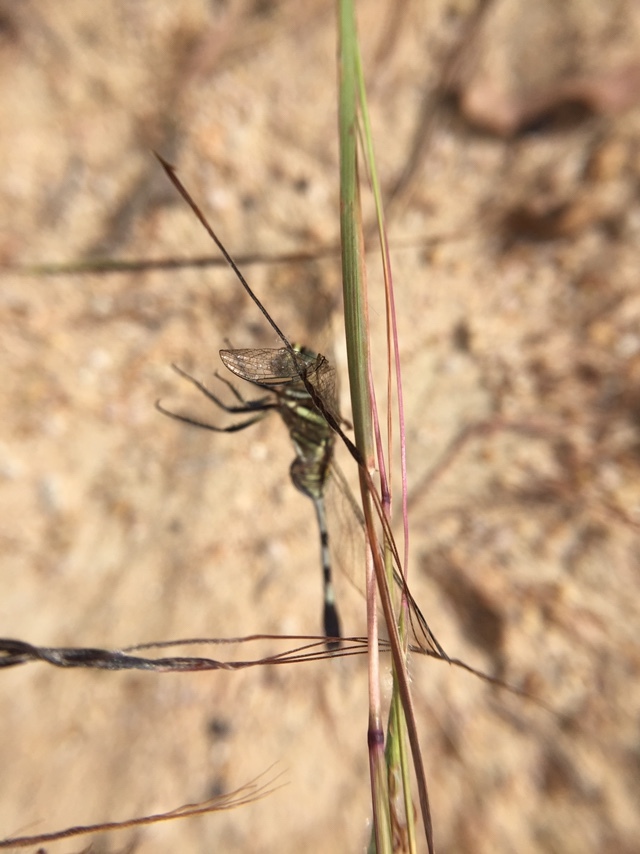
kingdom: Animalia
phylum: Arthropoda
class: Insecta
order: Odonata
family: Libellulidae
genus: Orthetrum
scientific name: Orthetrum sabina
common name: Slender skimmer
